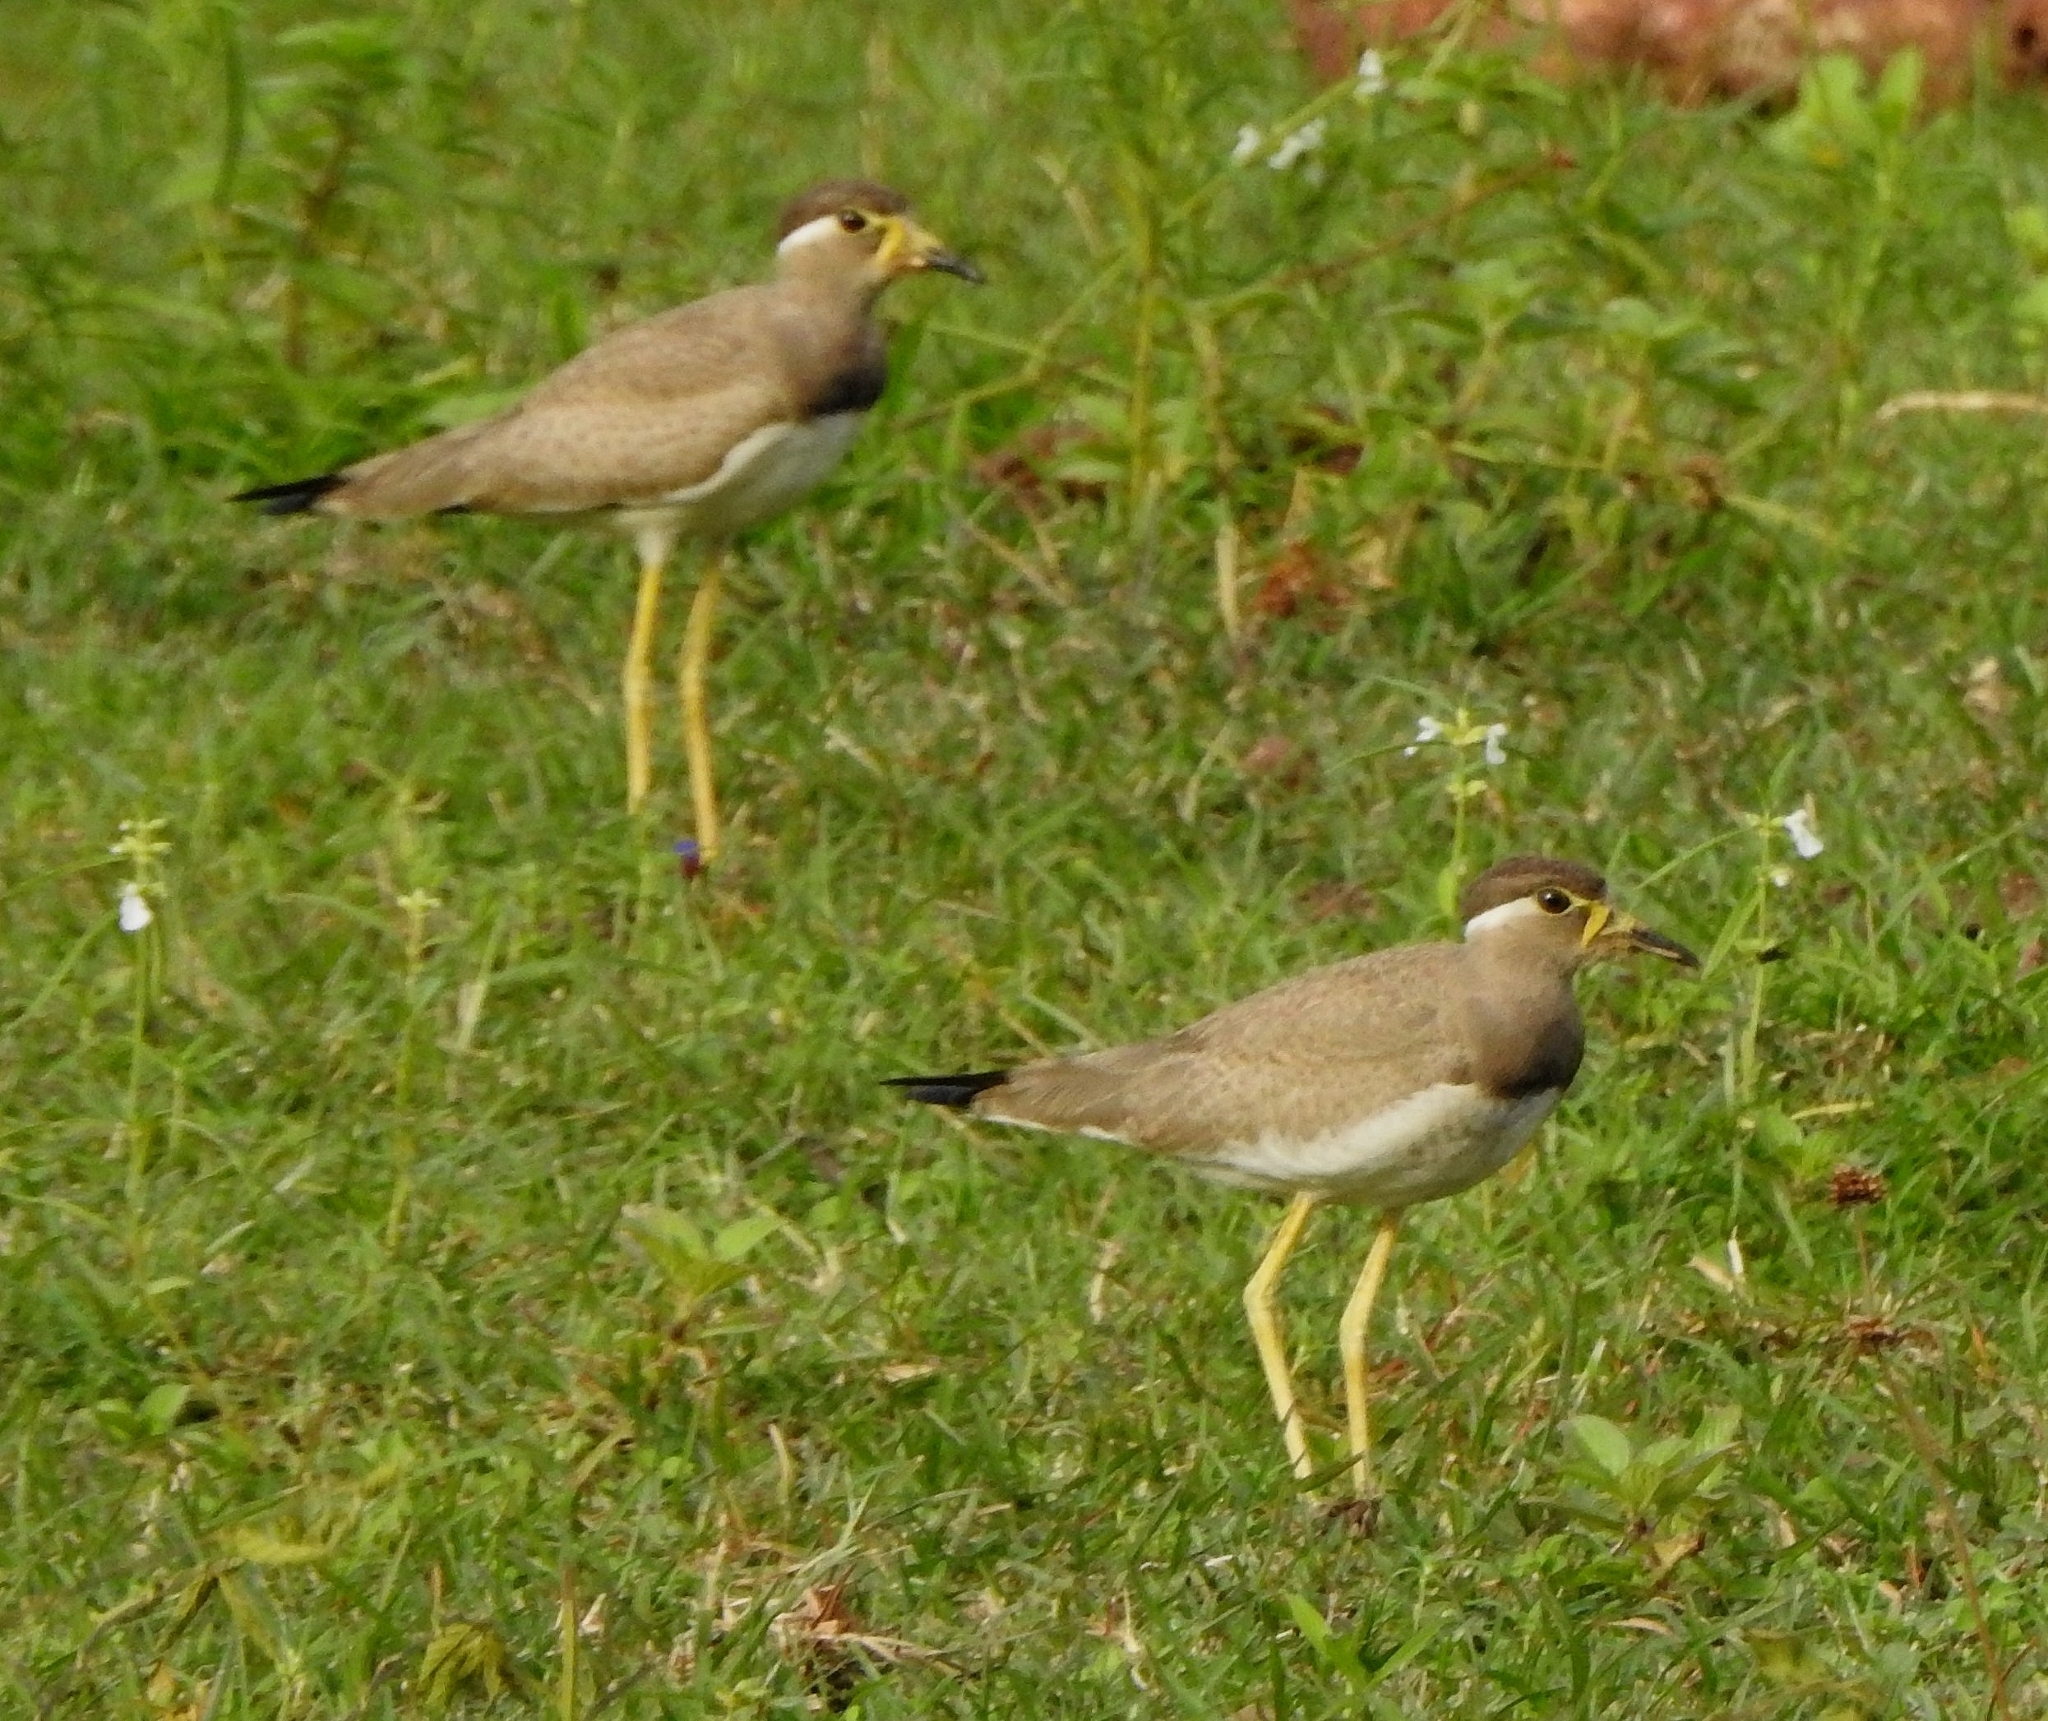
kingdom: Animalia
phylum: Chordata
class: Aves
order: Charadriiformes
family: Charadriidae
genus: Vanellus
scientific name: Vanellus malabaricus
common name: Yellow-wattled lapwing
